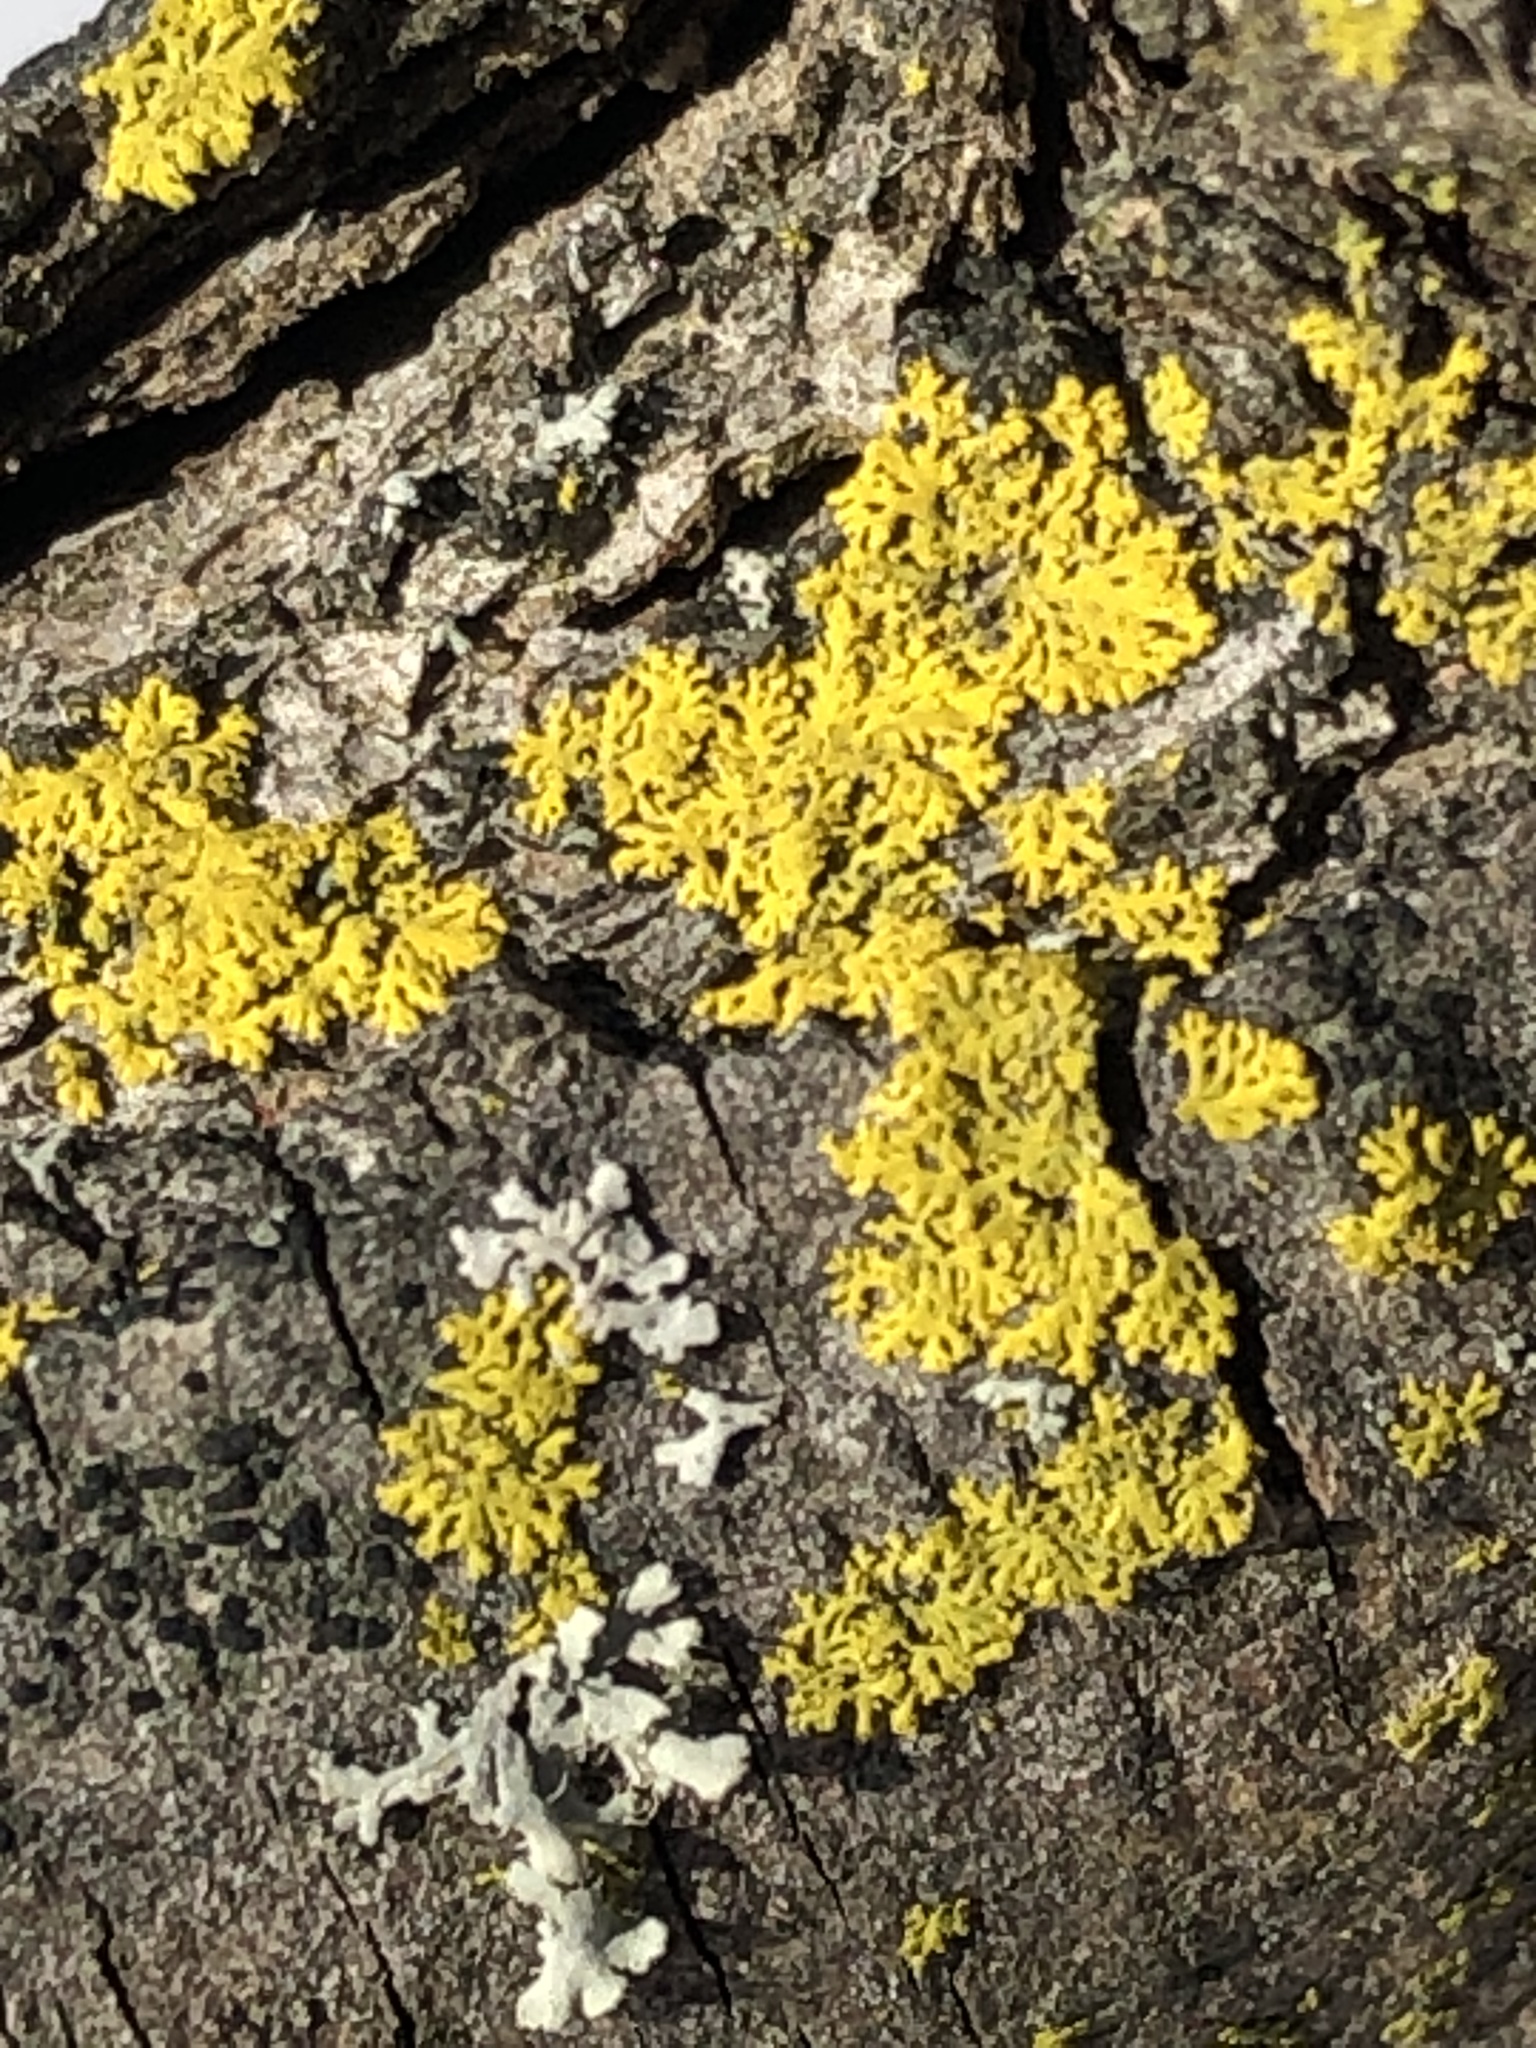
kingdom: Fungi
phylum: Ascomycota
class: Candelariomycetes
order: Candelariales
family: Candelariaceae
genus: Candelaria
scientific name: Candelaria concolor
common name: Candleflame lichen
